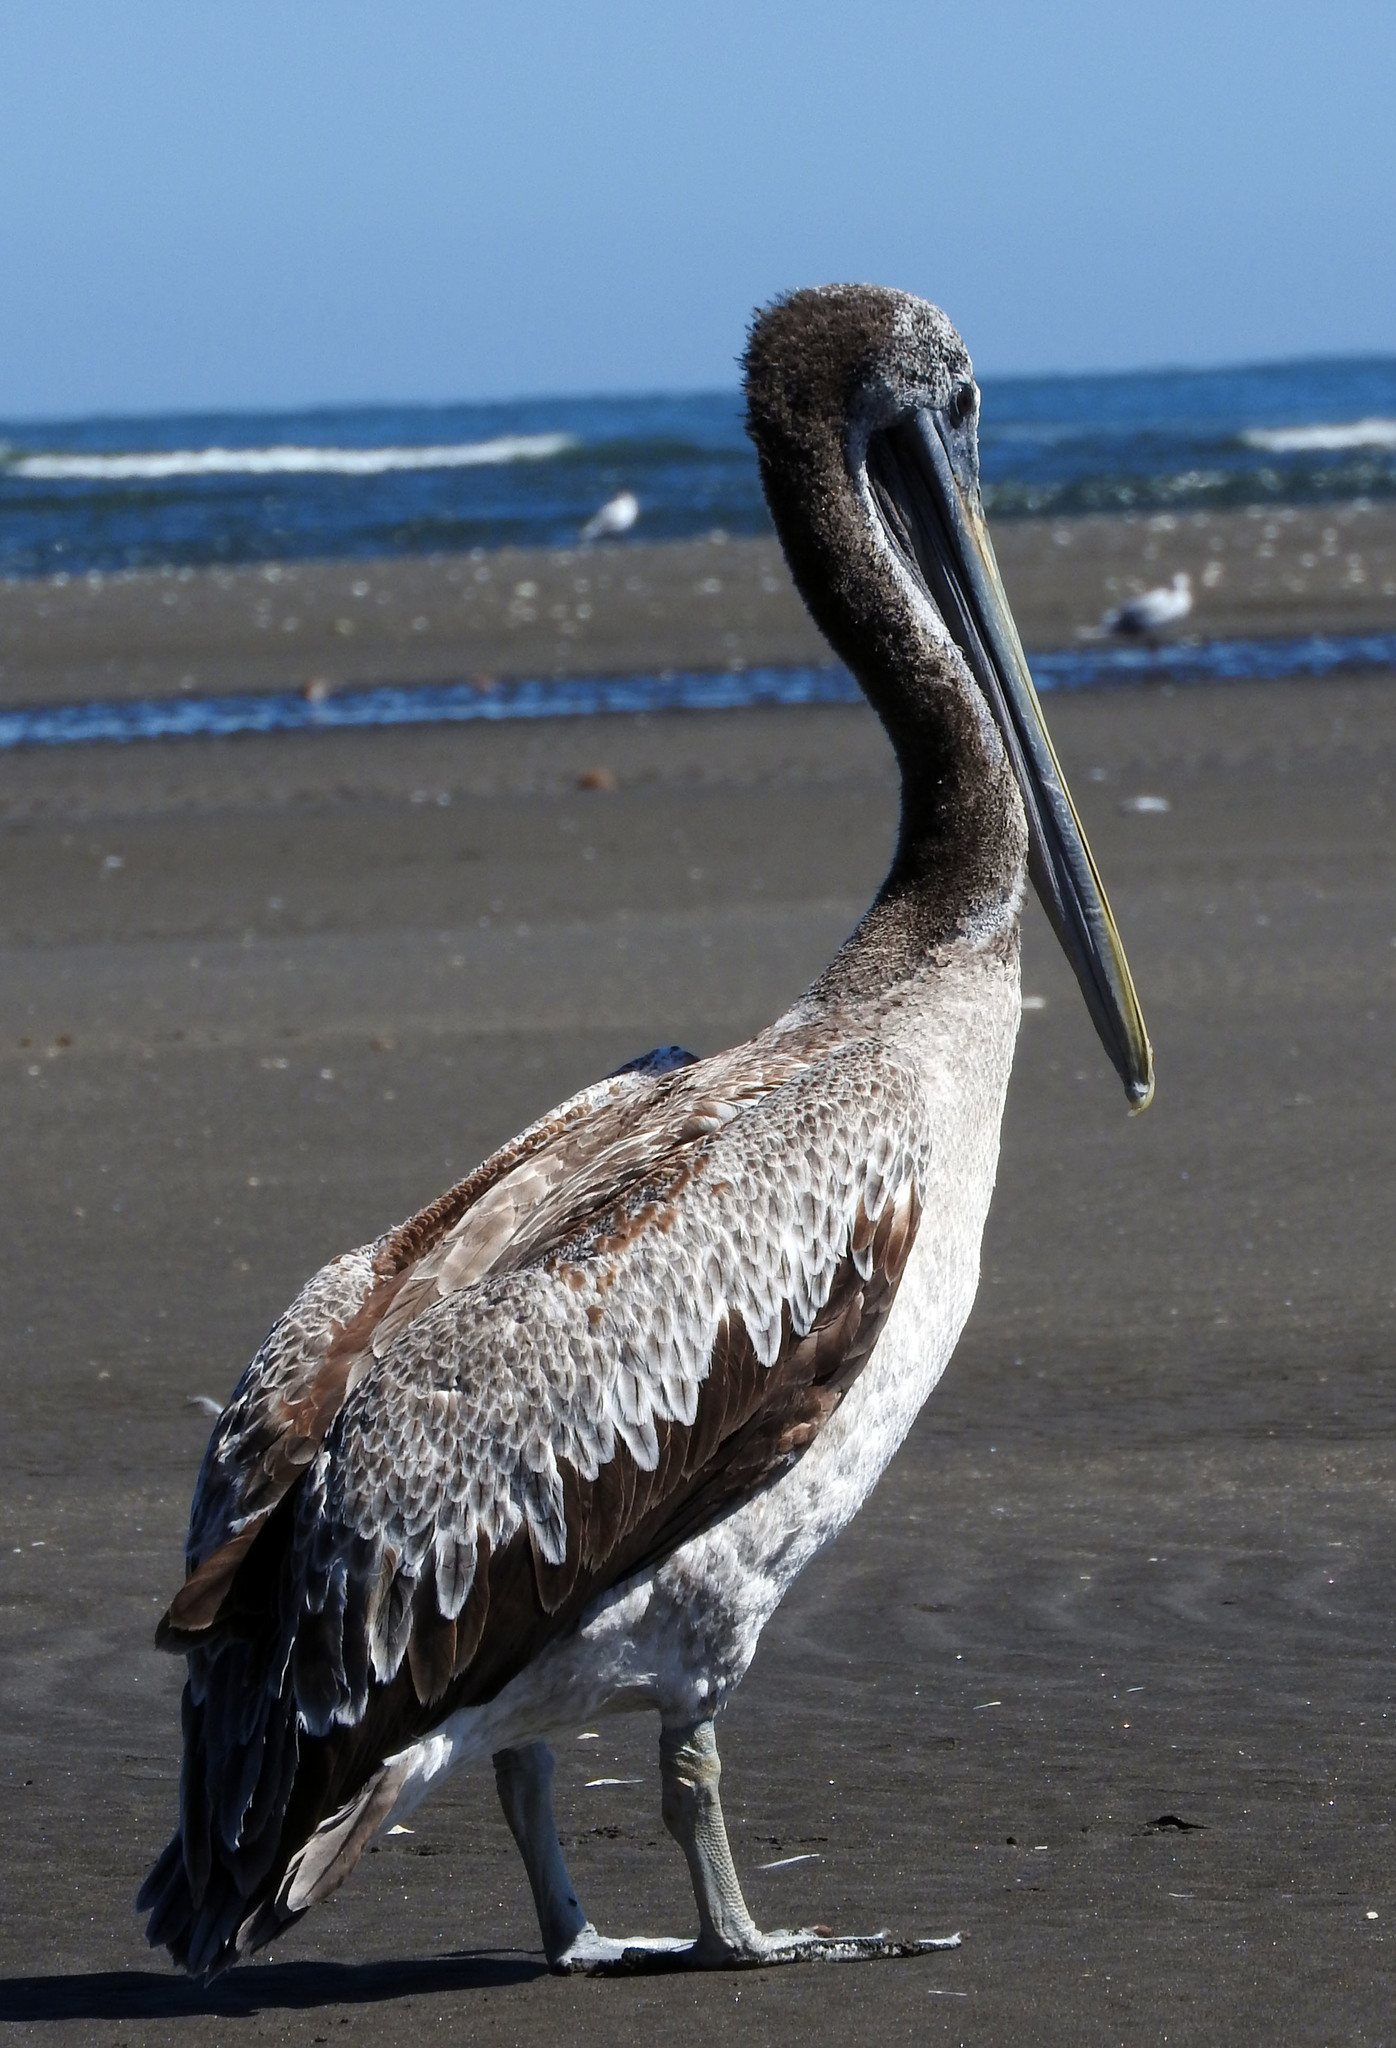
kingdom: Animalia
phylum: Chordata
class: Aves
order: Pelecaniformes
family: Pelecanidae
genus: Pelecanus
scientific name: Pelecanus thagus
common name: Peruvian pelican
